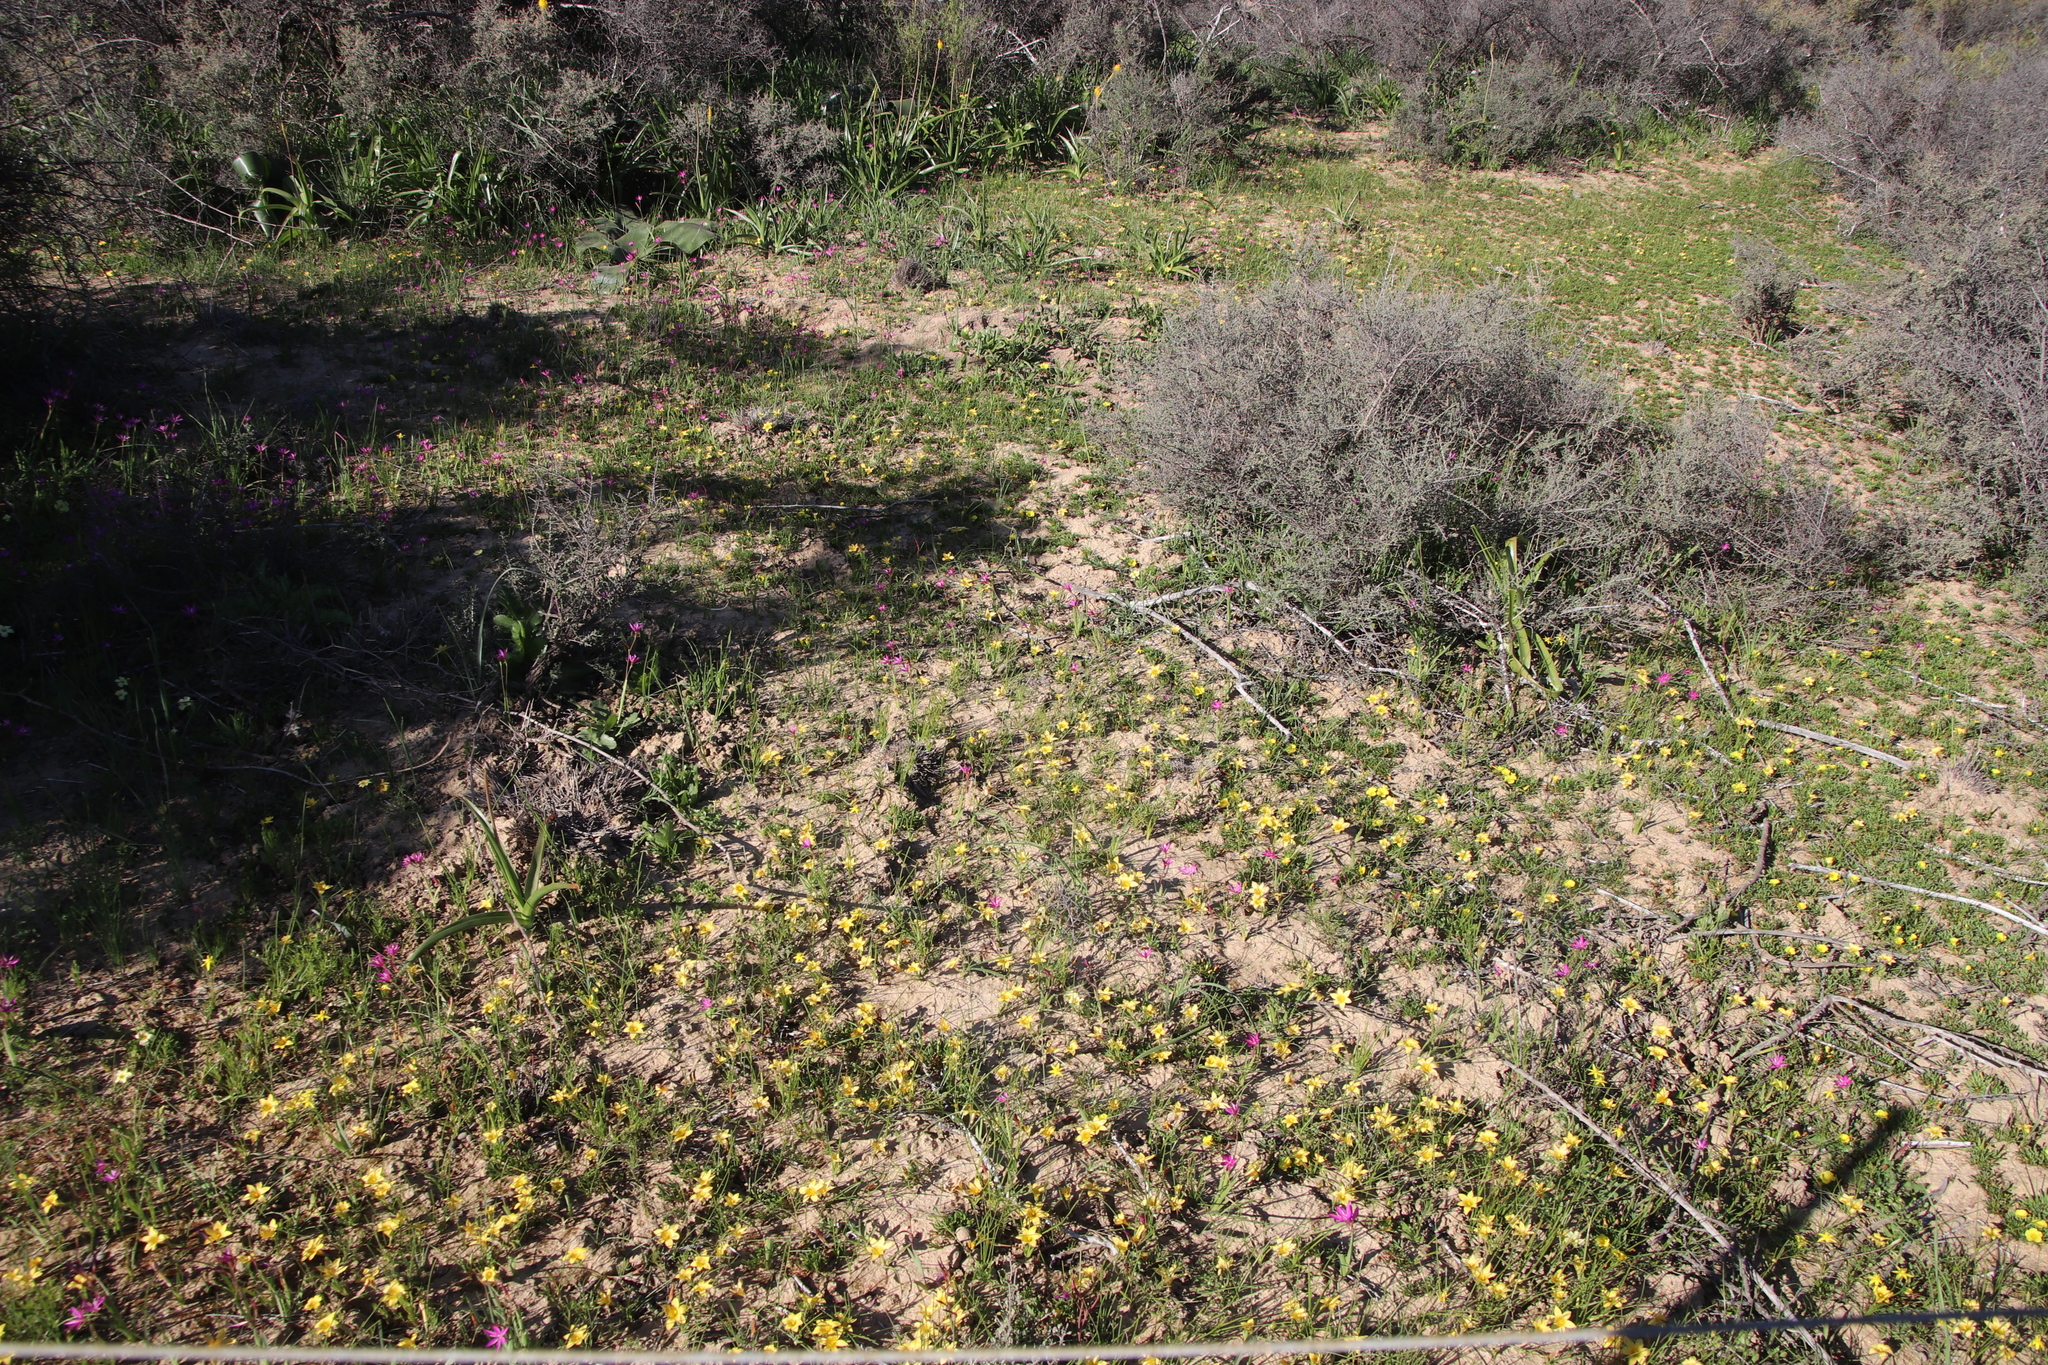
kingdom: Plantae
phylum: Tracheophyta
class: Liliopsida
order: Asparagales
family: Iridaceae
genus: Romulea
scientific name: Romulea citrina
